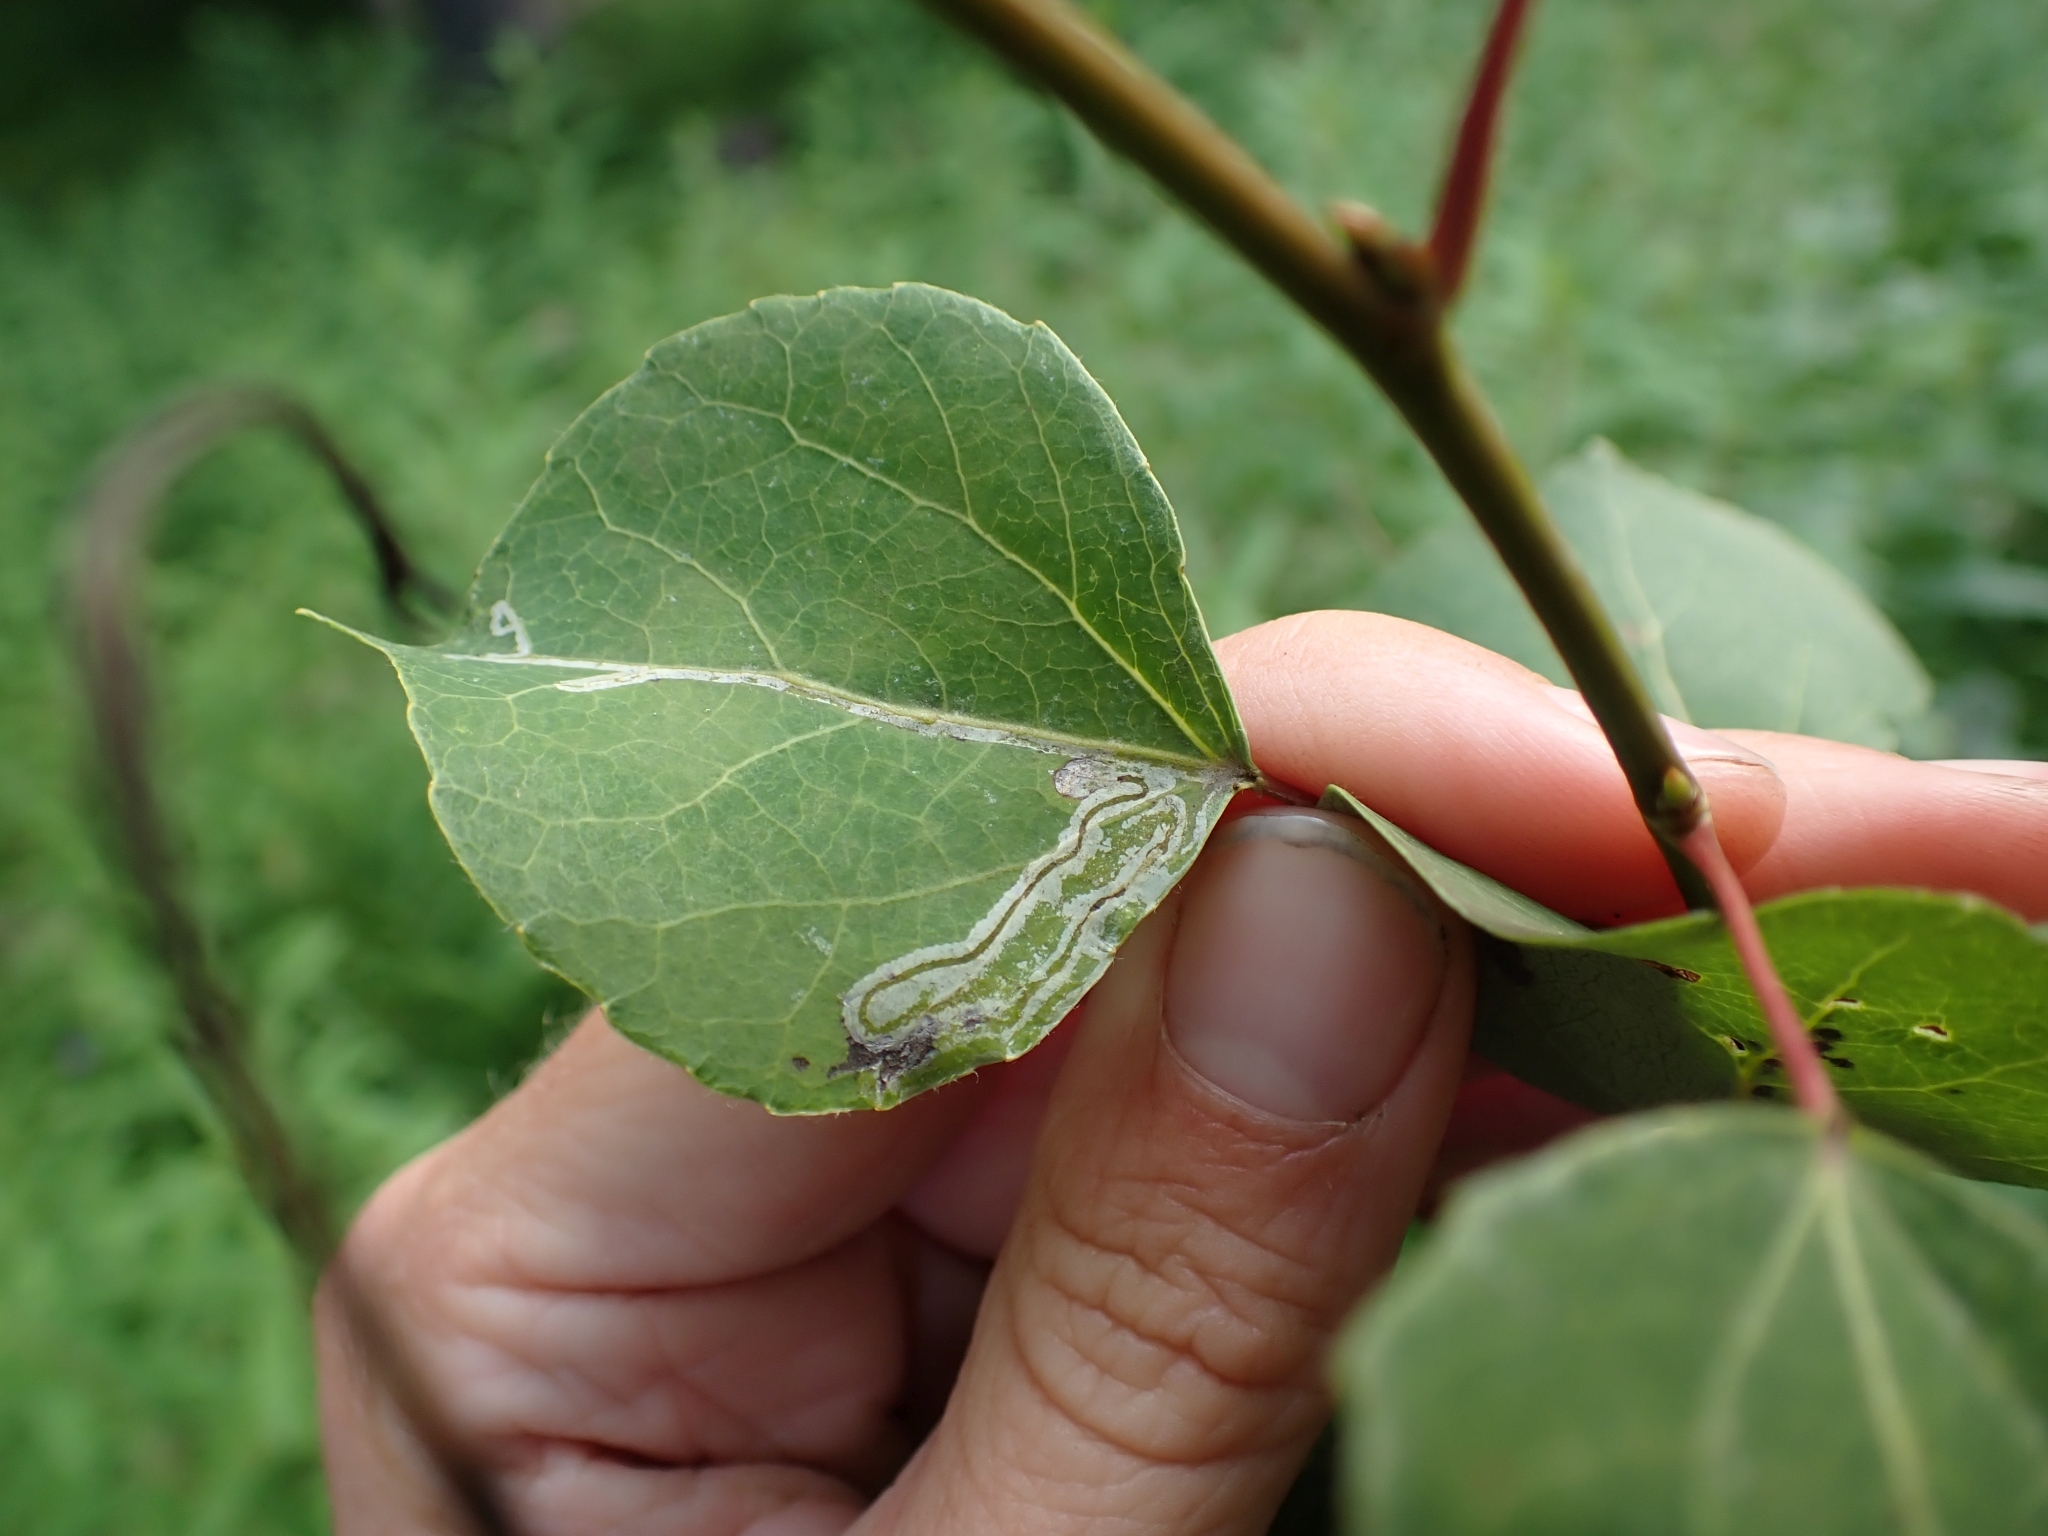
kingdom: Animalia
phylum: Arthropoda
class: Insecta
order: Lepidoptera
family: Gracillariidae
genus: Phyllocnistis
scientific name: Phyllocnistis populiella
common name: Aspen serpentine leafminer moth
